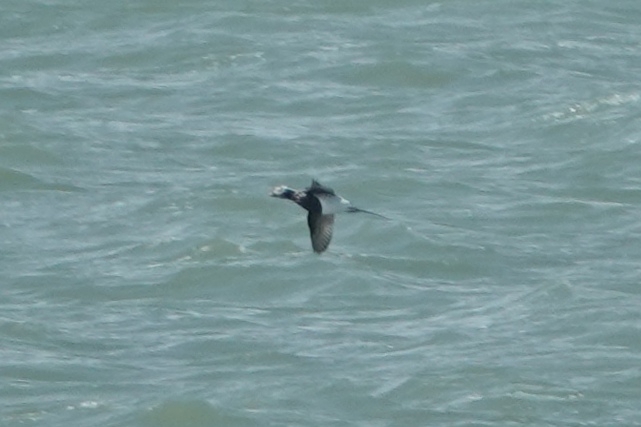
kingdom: Animalia
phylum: Chordata
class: Aves
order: Anseriformes
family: Anatidae
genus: Clangula
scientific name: Clangula hyemalis
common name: Long-tailed duck
